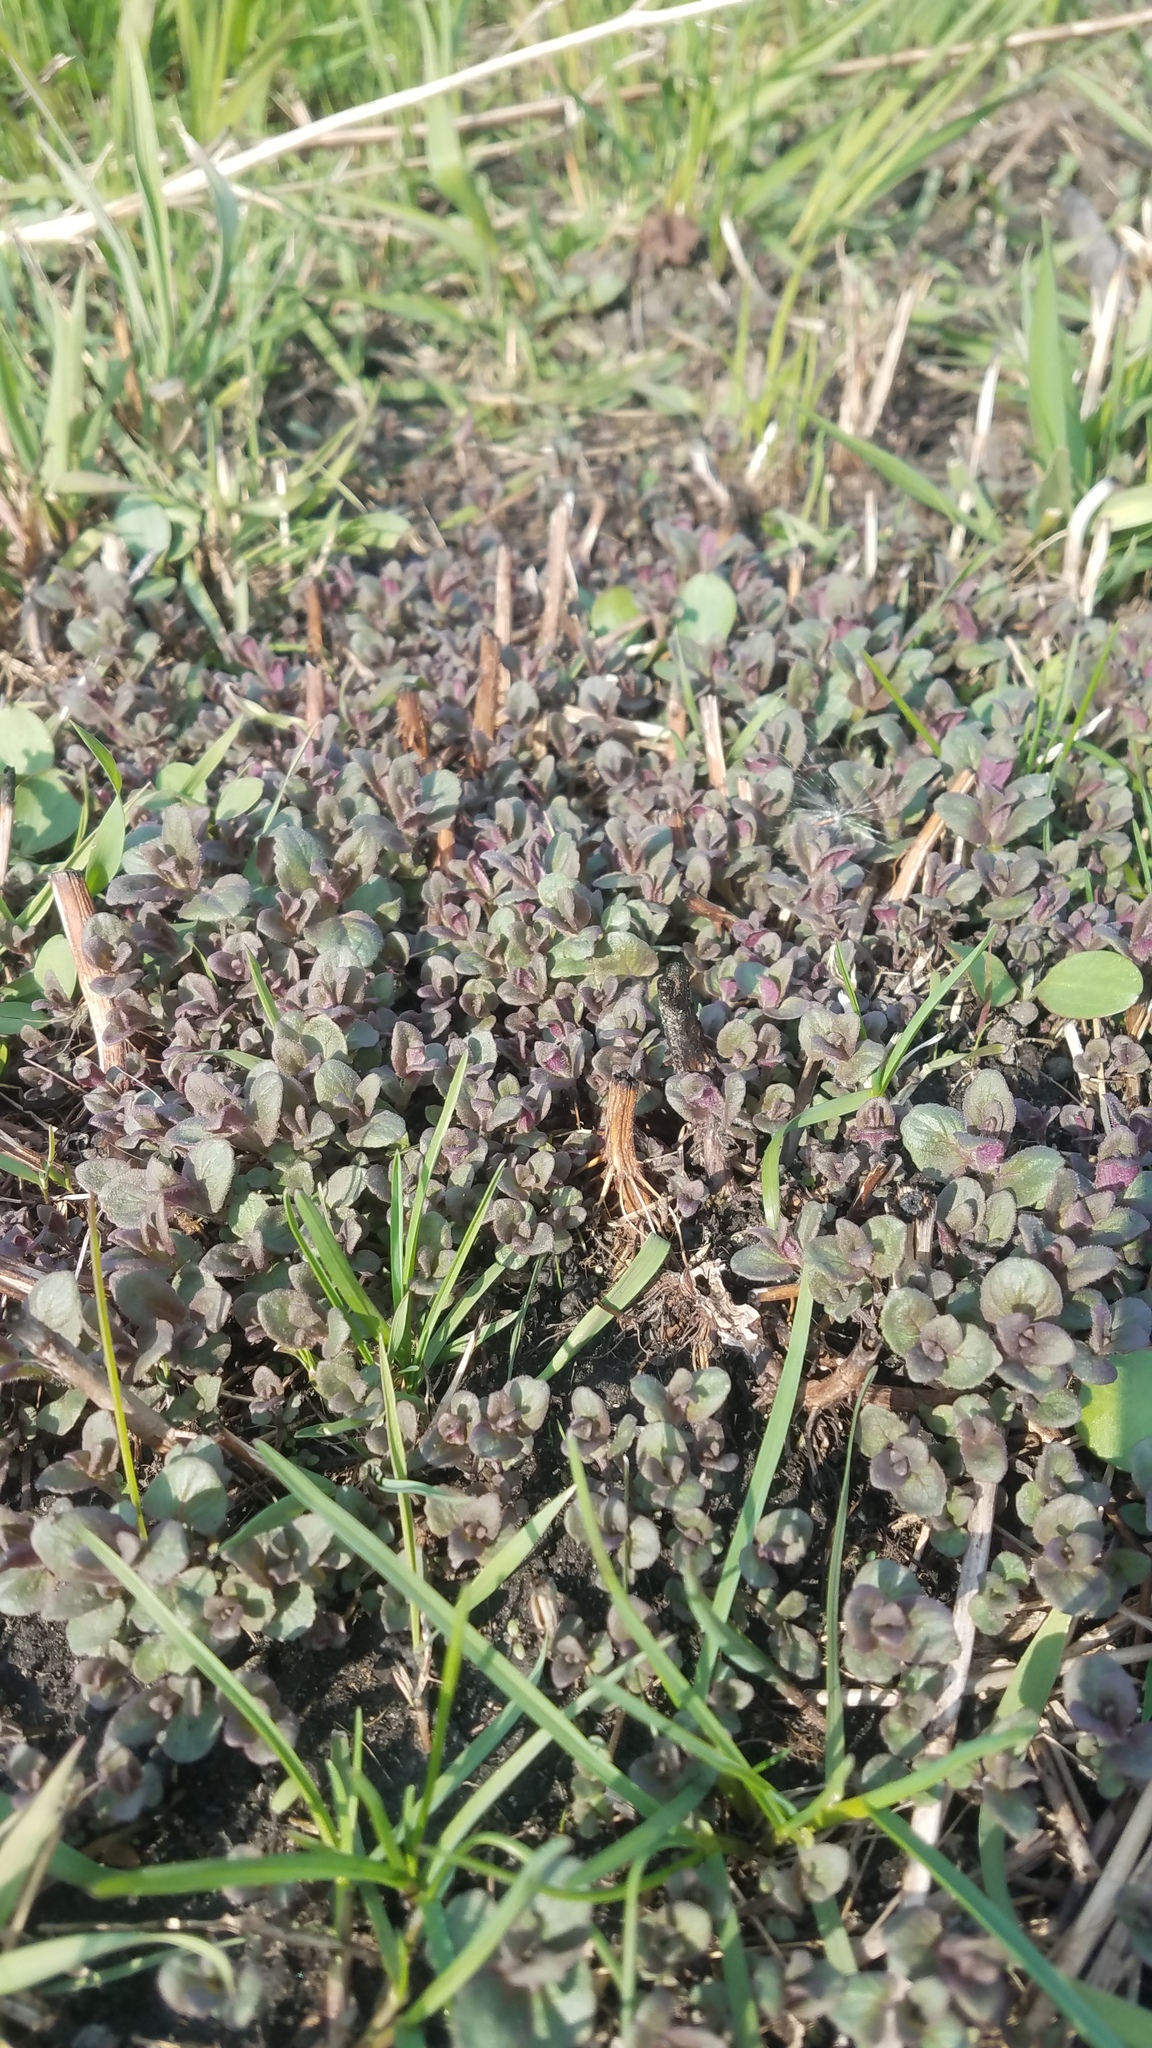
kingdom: Plantae
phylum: Tracheophyta
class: Magnoliopsida
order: Lamiales
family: Lamiaceae
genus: Monarda
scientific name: Monarda fistulosa
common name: Purple beebalm
